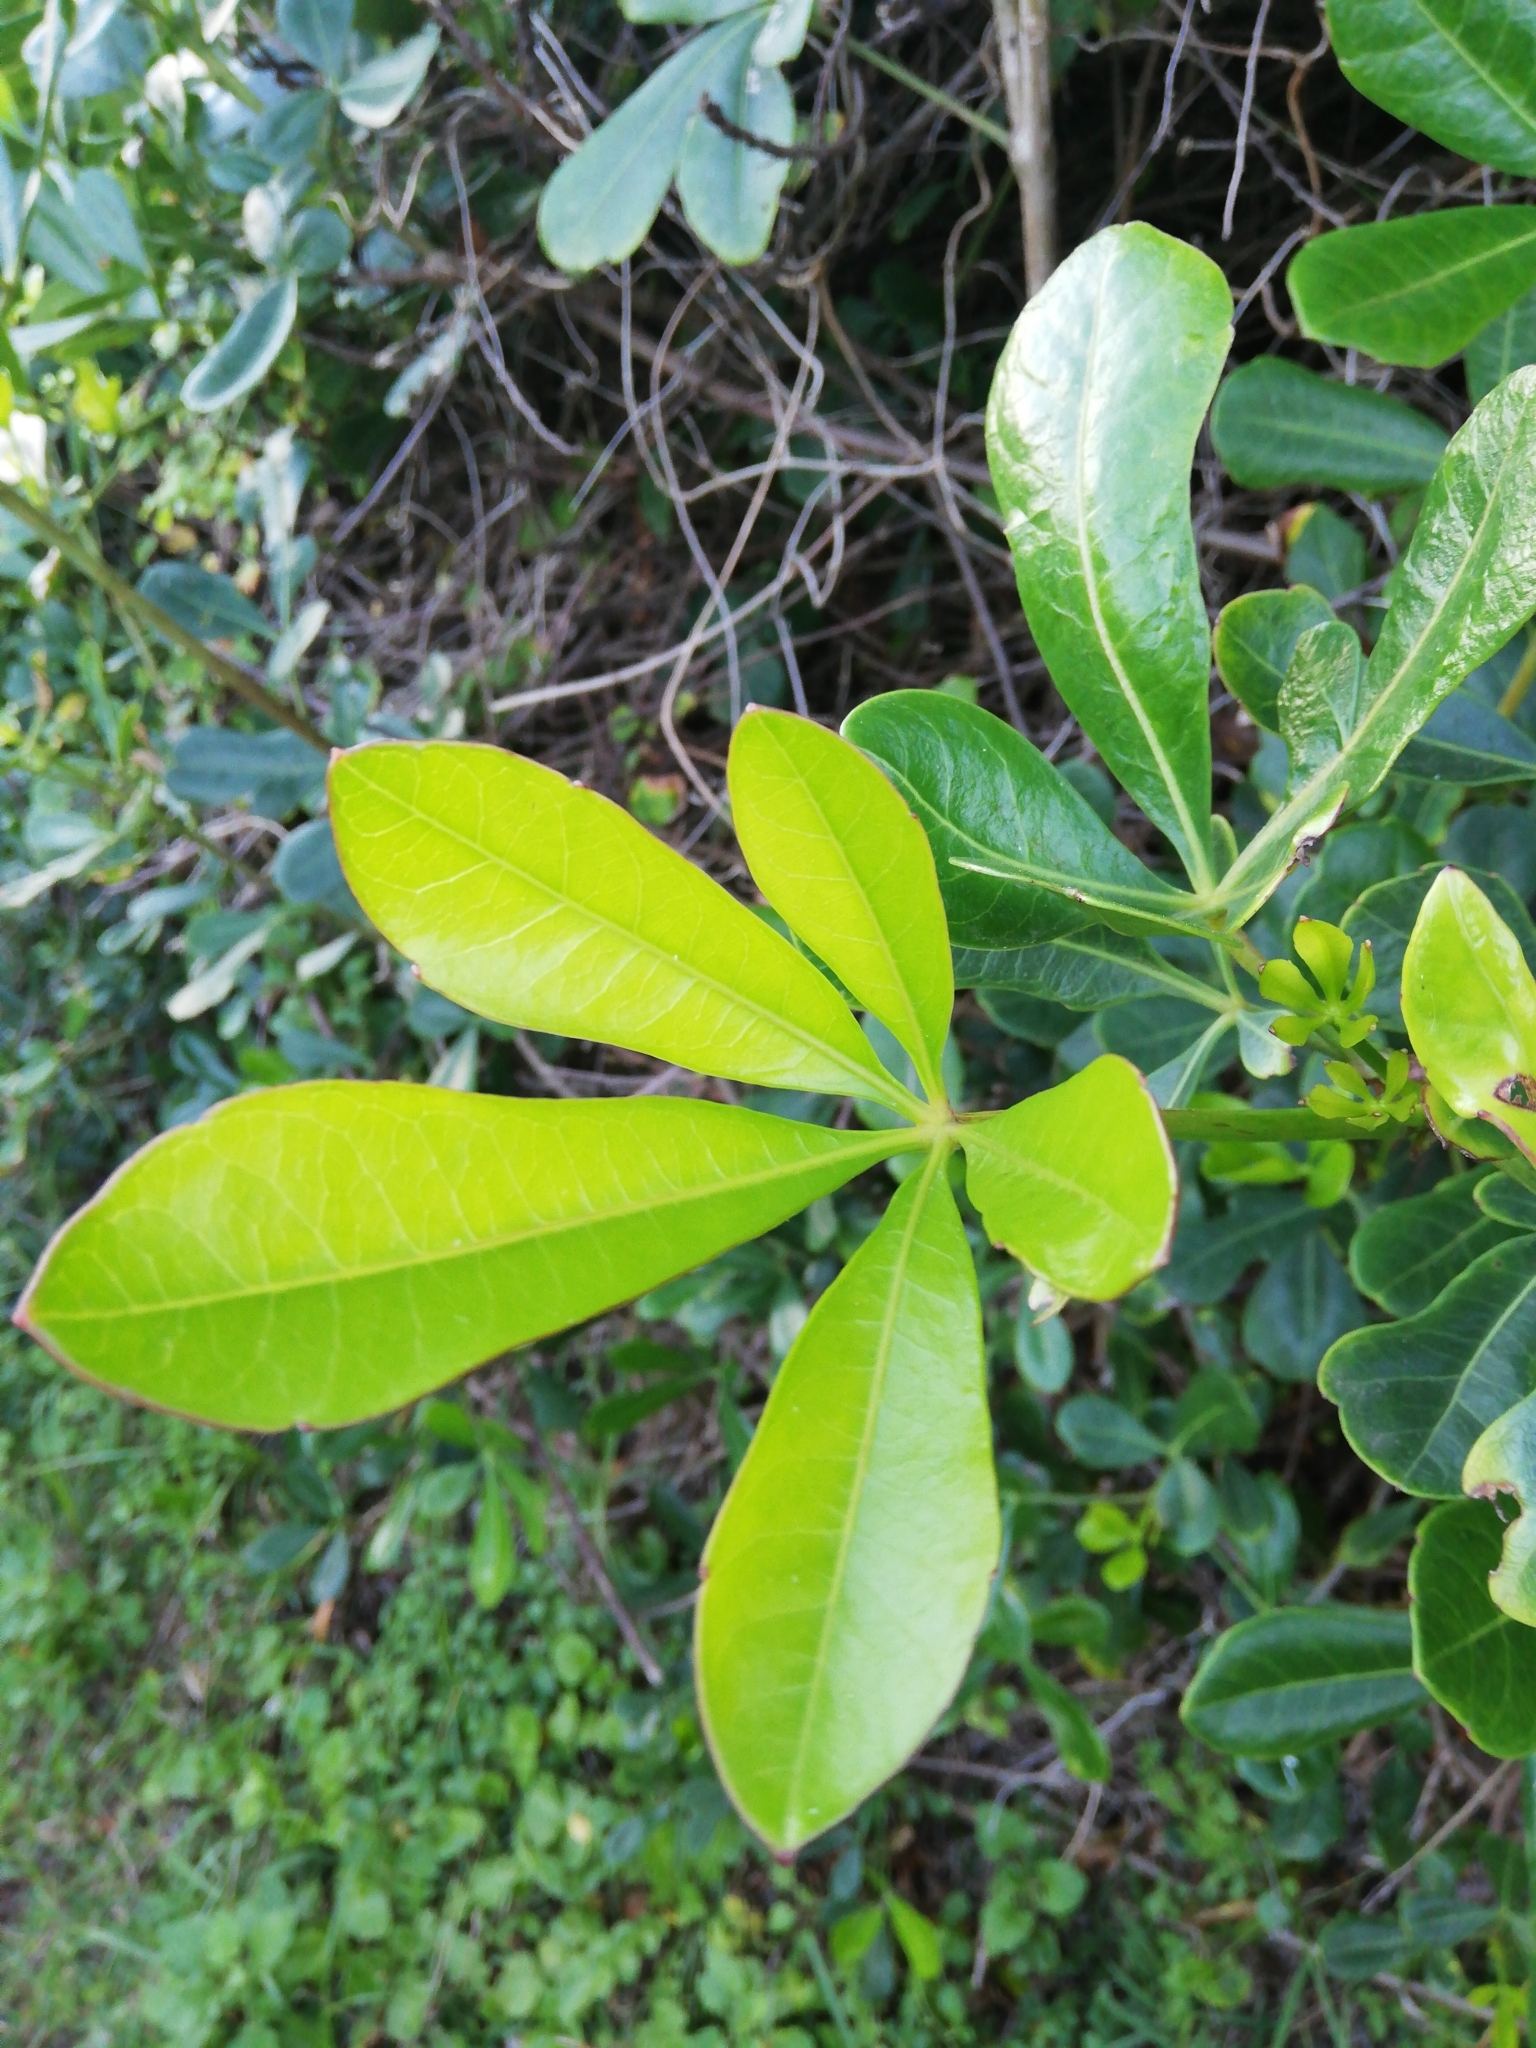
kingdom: Plantae
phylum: Tracheophyta
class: Magnoliopsida
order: Apiales
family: Araliaceae
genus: Cussonia
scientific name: Cussonia thyrsiflora
